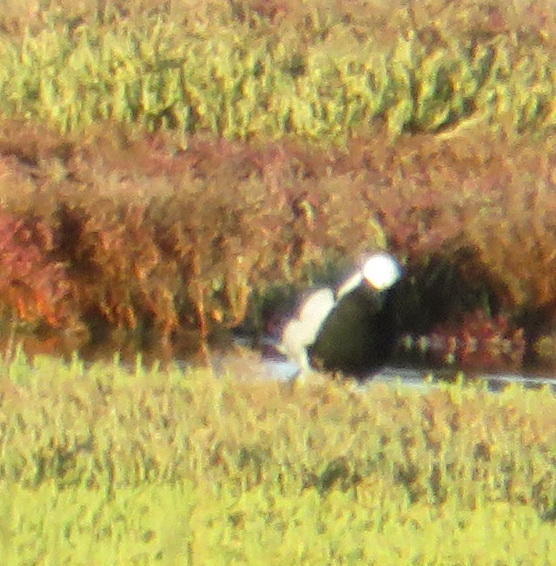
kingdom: Animalia
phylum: Chordata
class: Aves
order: Charadriiformes
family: Charadriidae
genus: Vanellus
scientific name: Vanellus armatus
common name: Blacksmith lapwing
